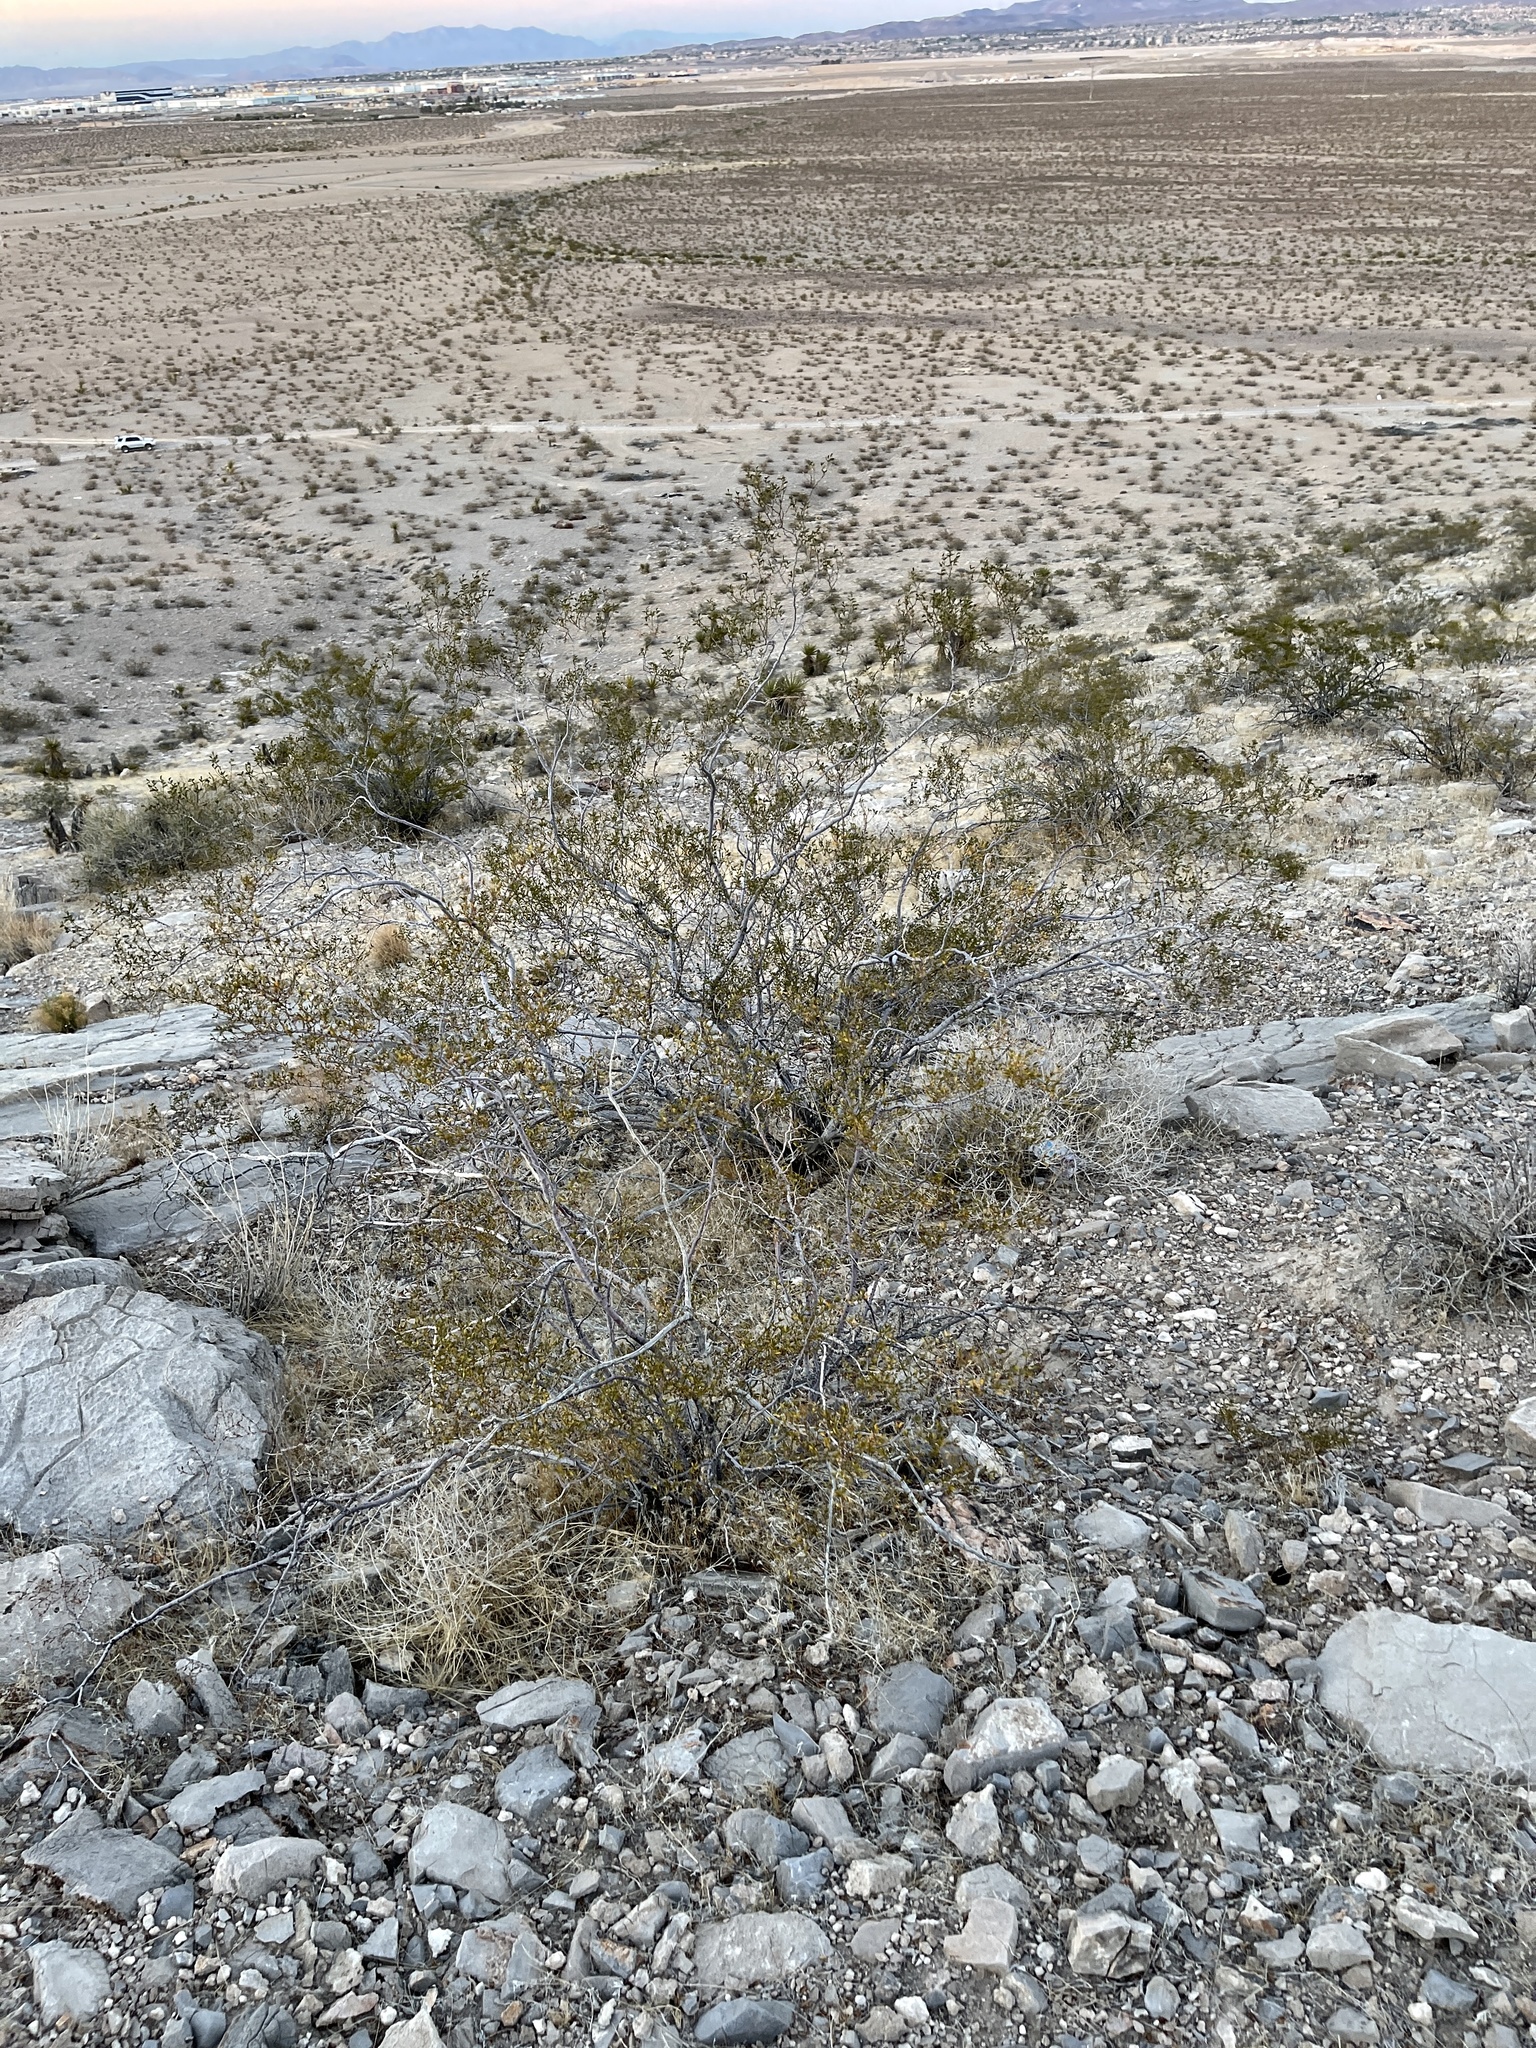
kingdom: Plantae
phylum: Tracheophyta
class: Magnoliopsida
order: Zygophyllales
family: Zygophyllaceae
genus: Larrea
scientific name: Larrea tridentata
